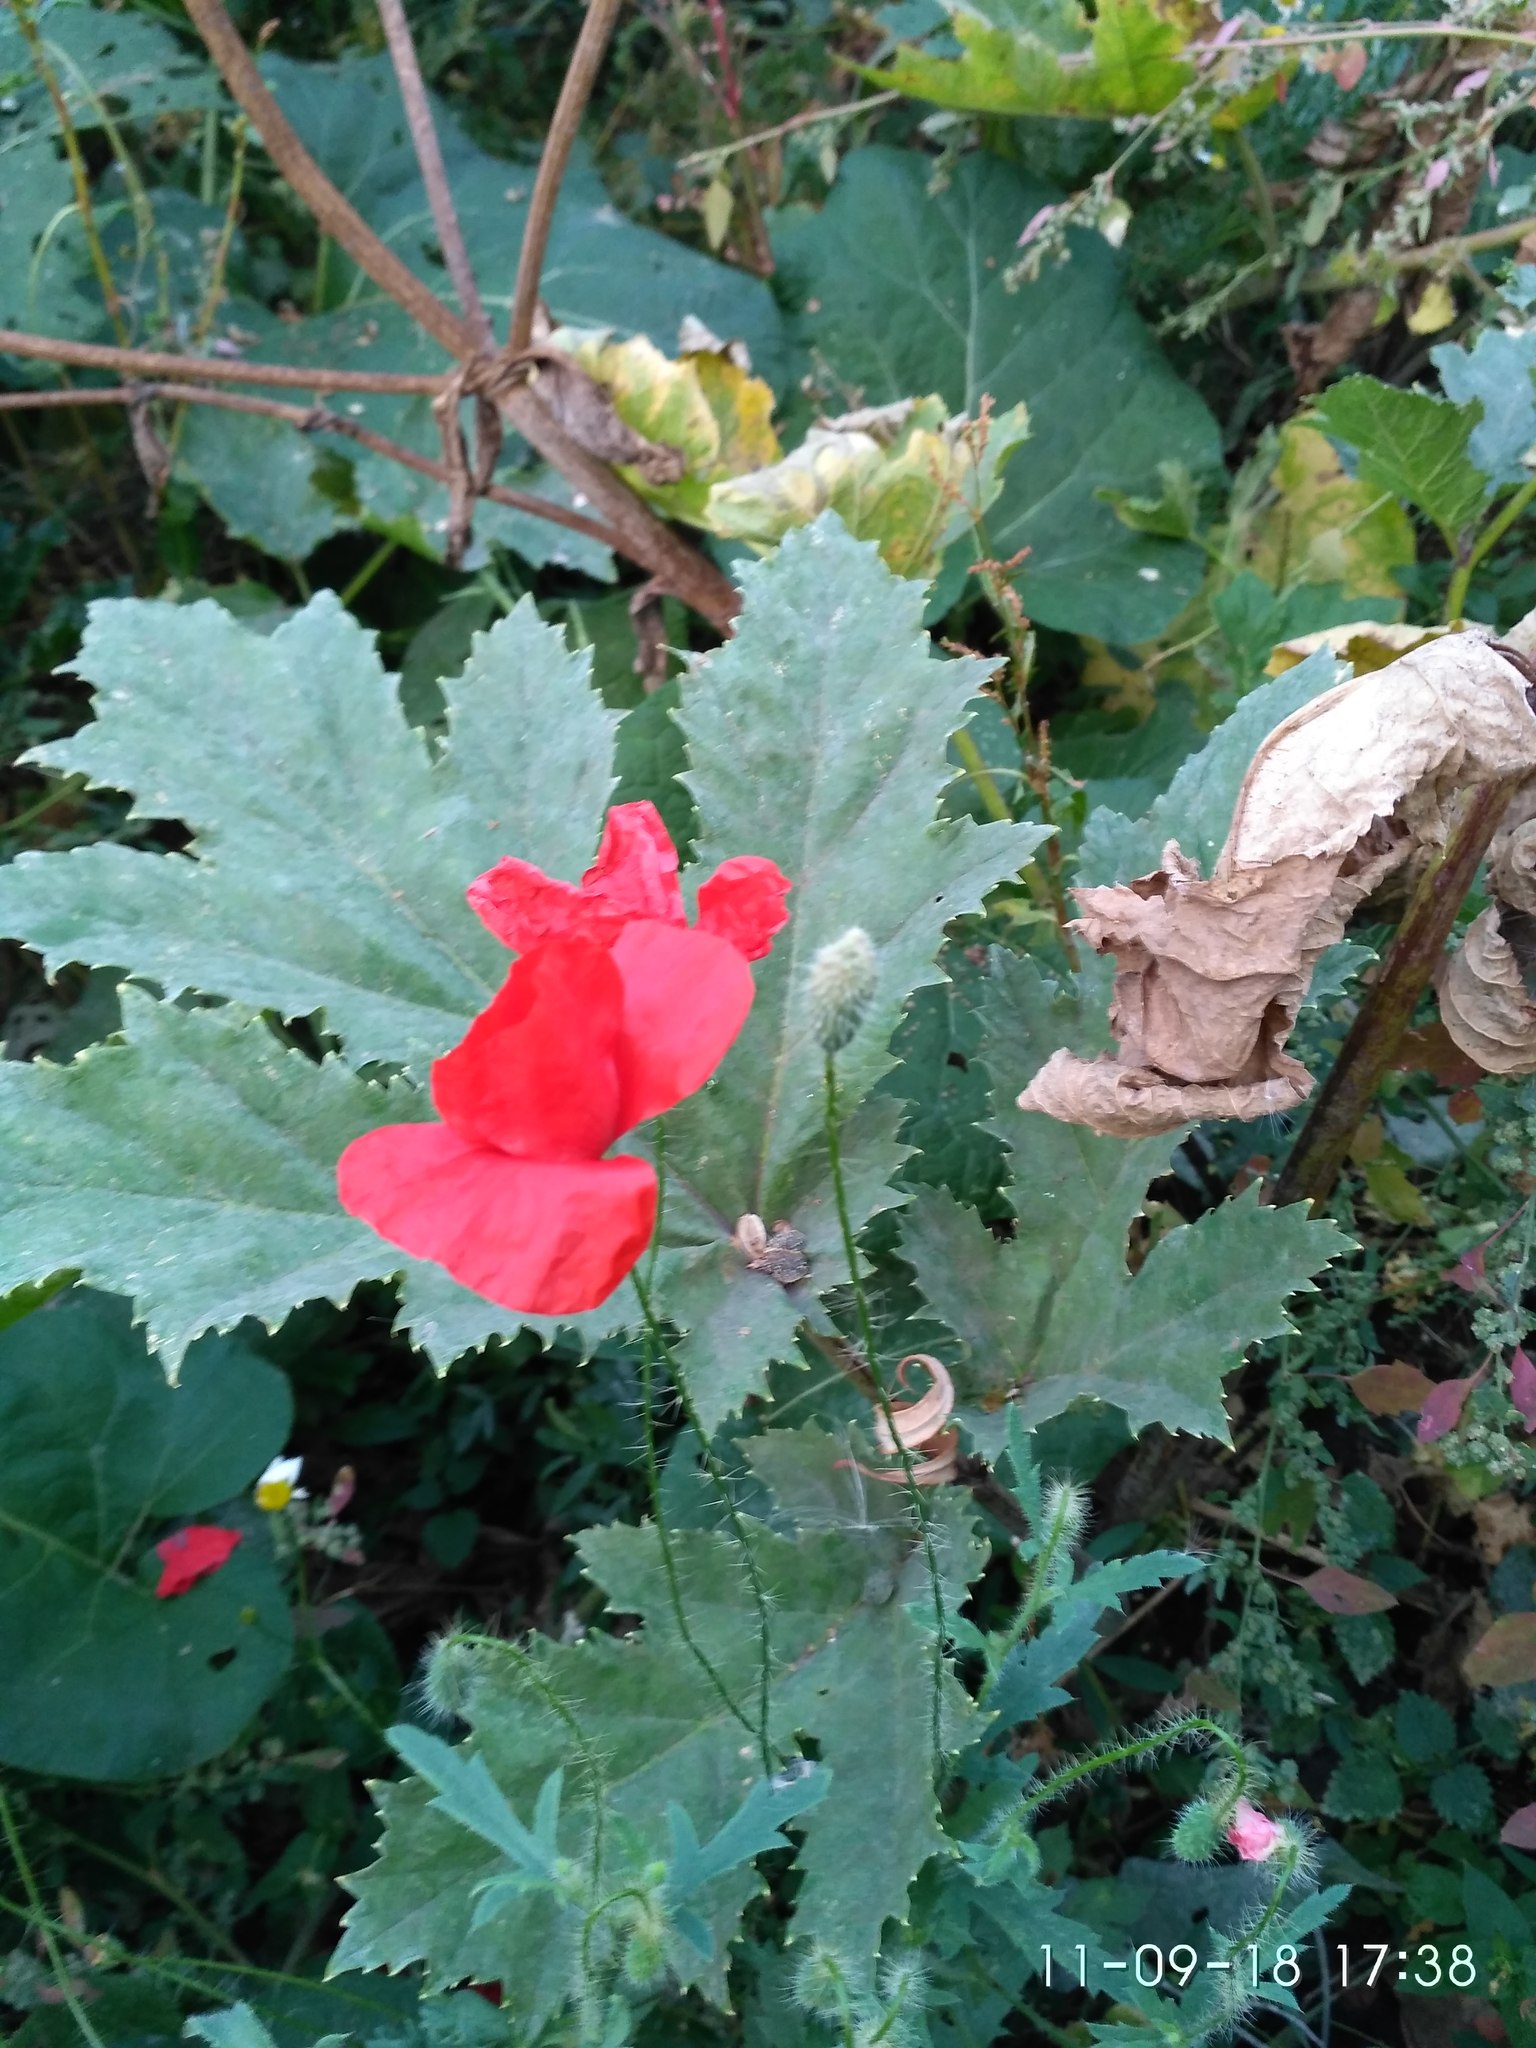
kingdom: Plantae
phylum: Tracheophyta
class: Magnoliopsida
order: Ranunculales
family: Papaveraceae
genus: Papaver
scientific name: Papaver rhoeas
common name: Corn poppy
